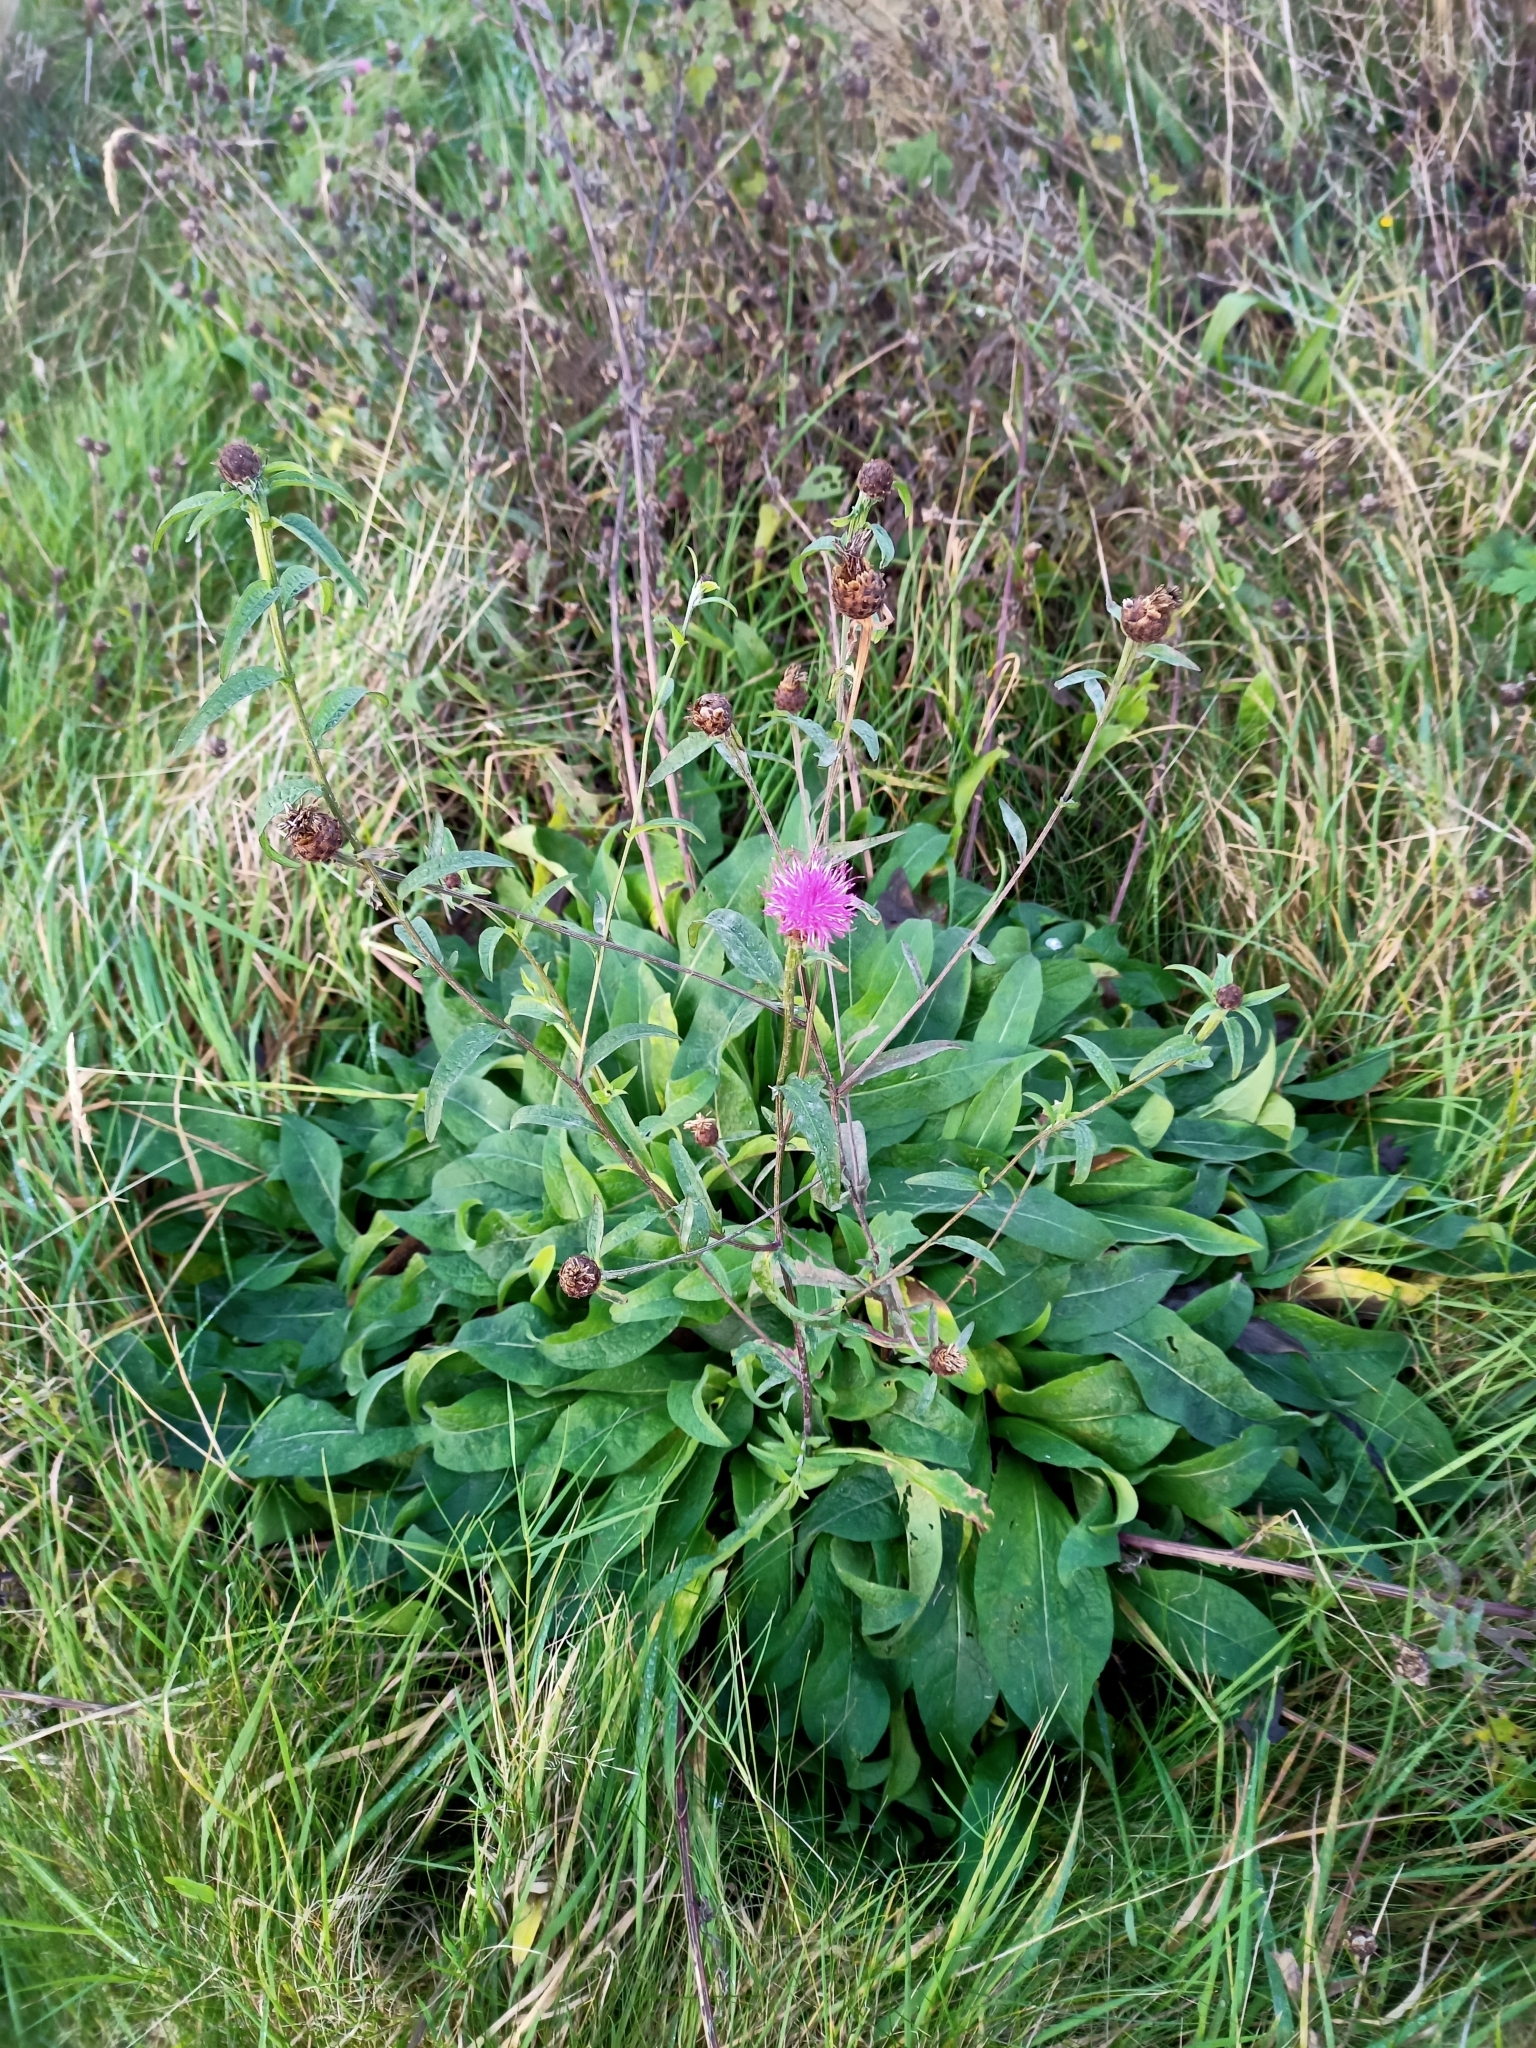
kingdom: Plantae
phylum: Tracheophyta
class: Magnoliopsida
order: Asterales
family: Asteraceae
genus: Centaurea
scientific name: Centaurea nigra
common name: Lesser knapweed
